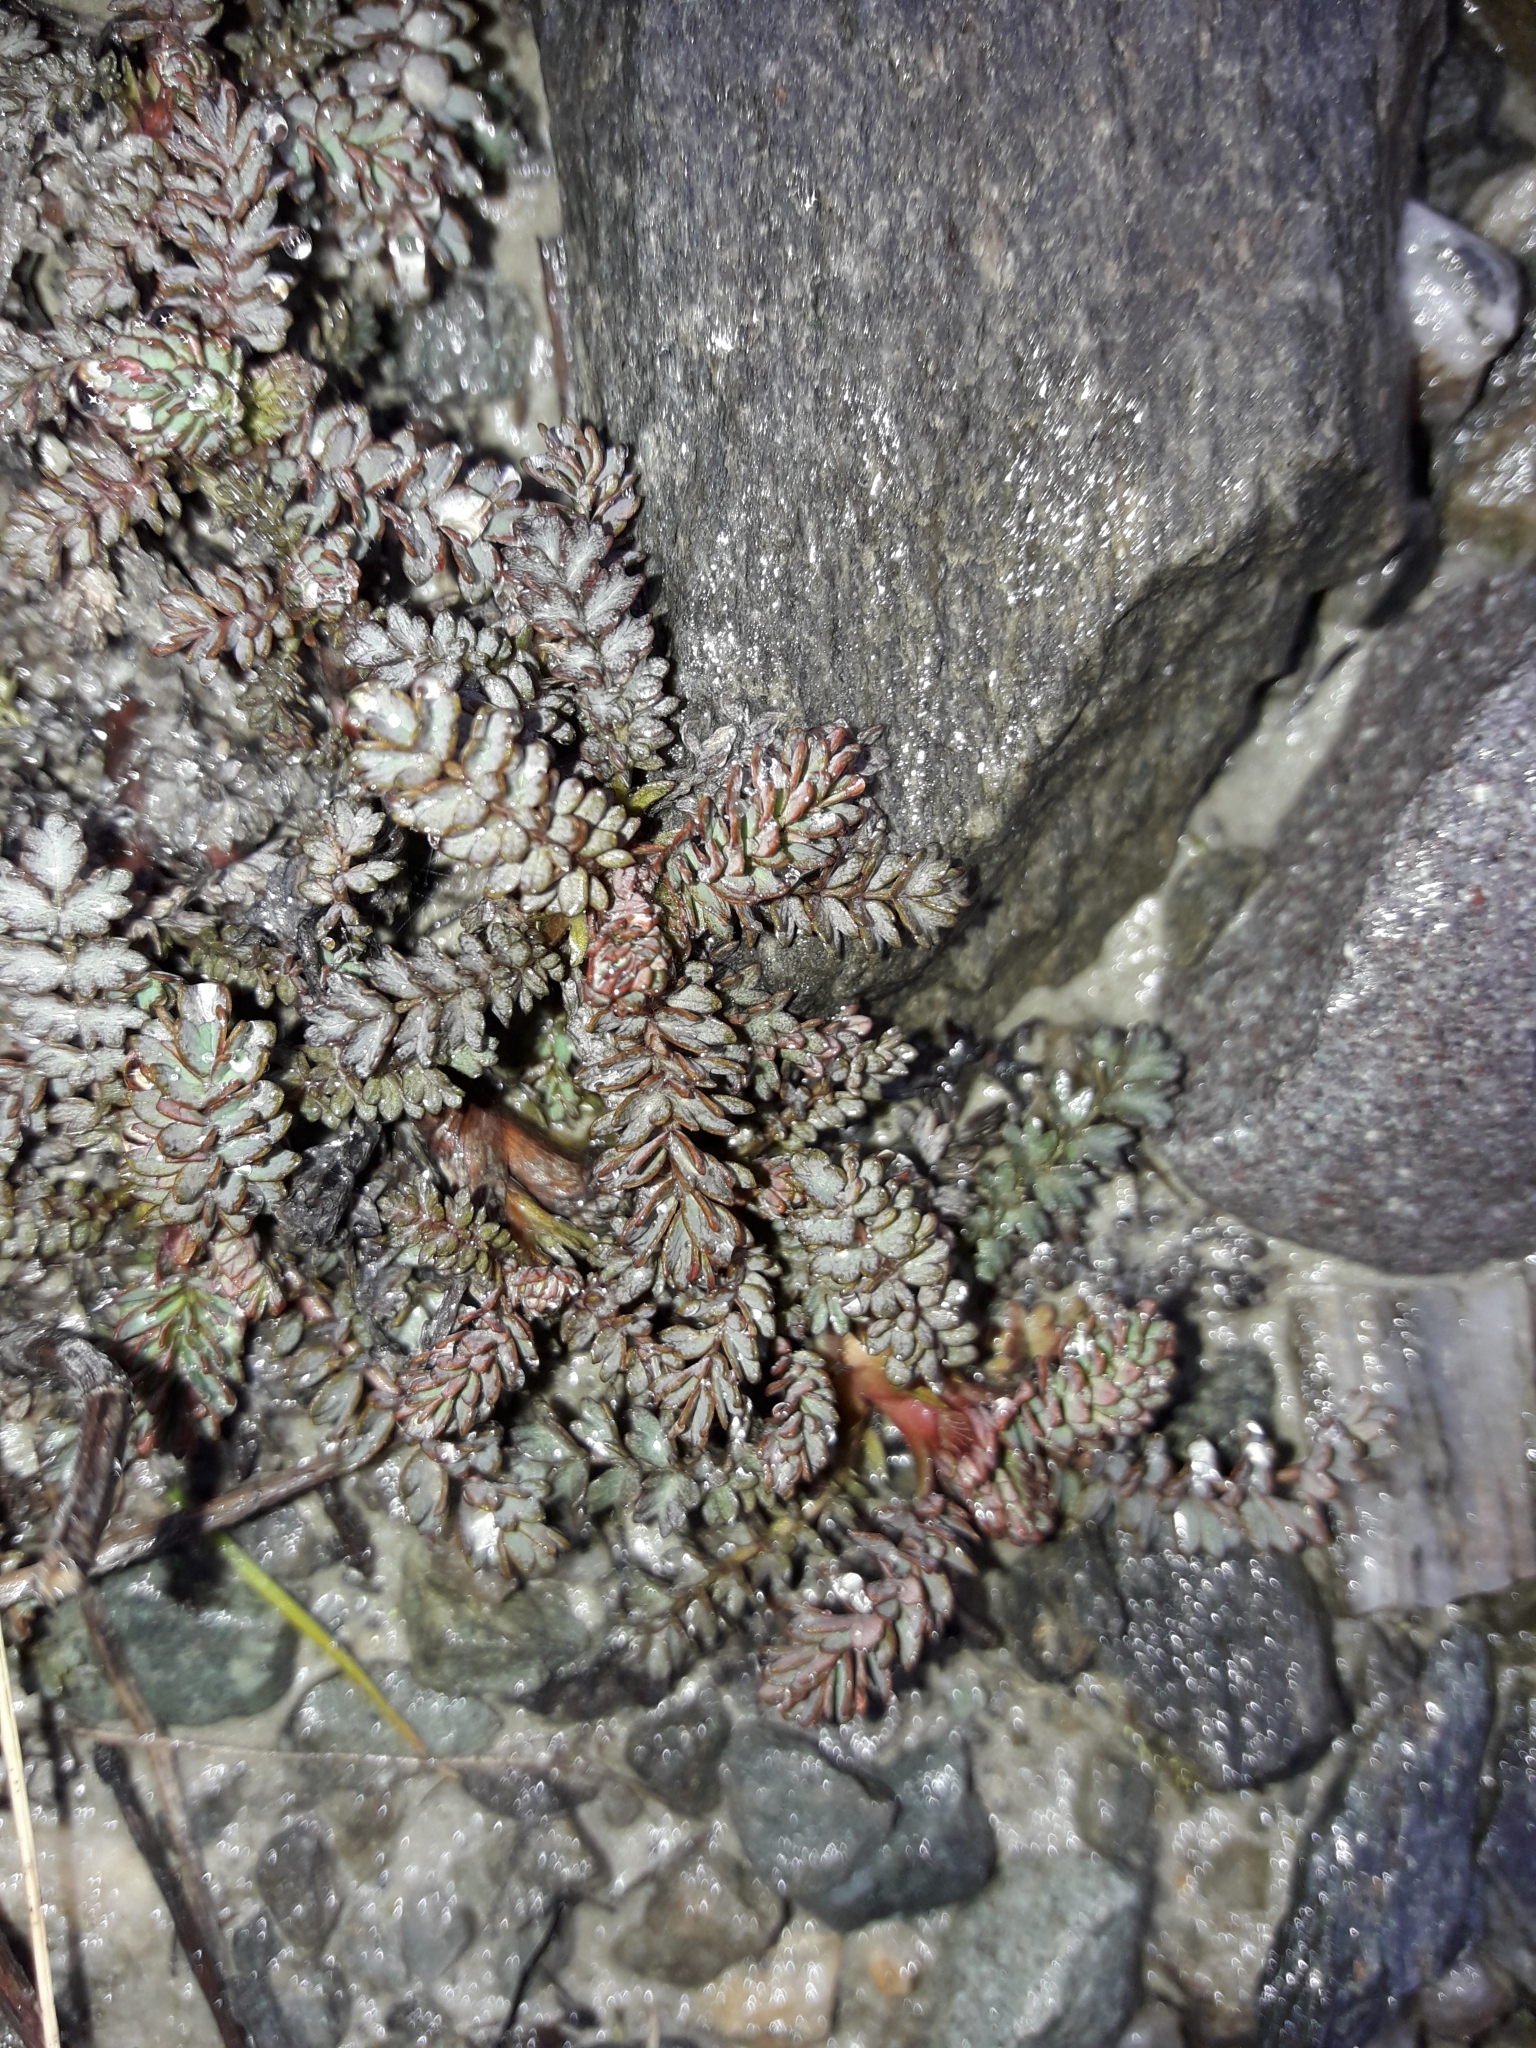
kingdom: Plantae
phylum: Tracheophyta
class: Magnoliopsida
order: Rosales
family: Rosaceae
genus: Acaena
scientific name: Acaena saccaticupula
